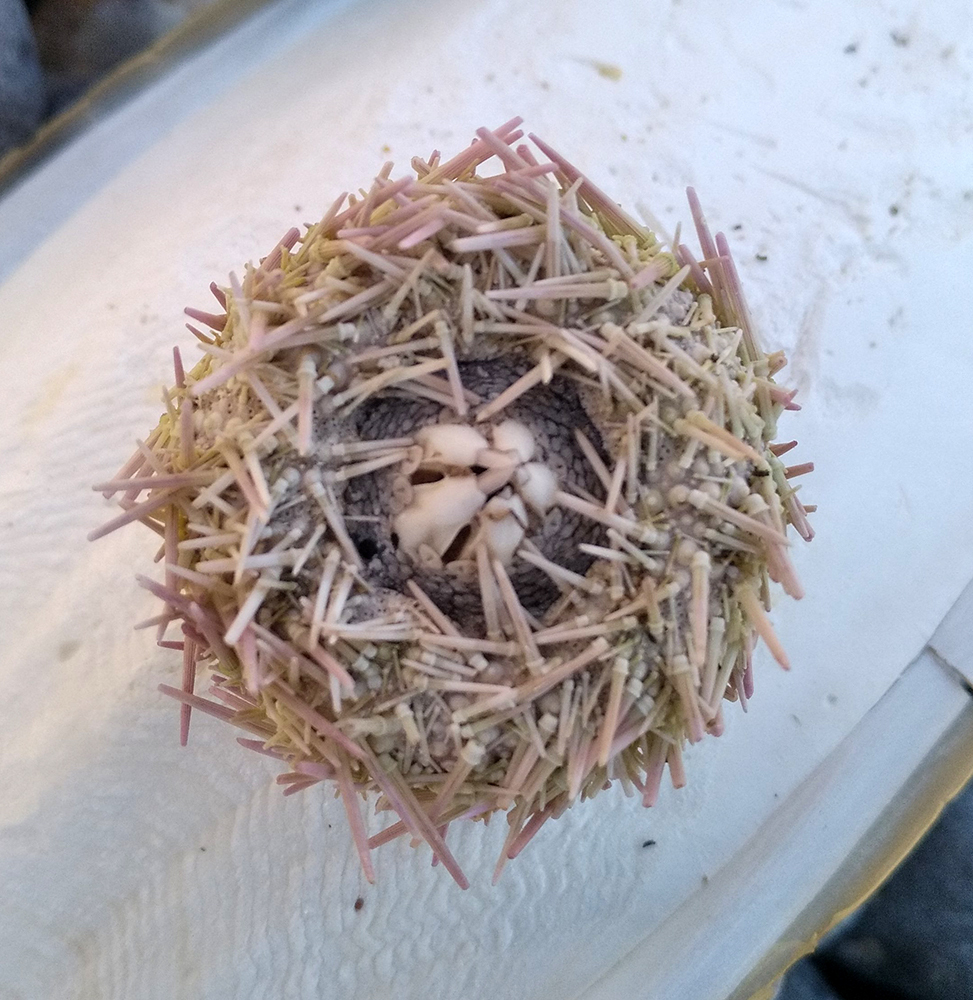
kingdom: Animalia
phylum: Echinodermata
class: Echinoidea
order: Camarodonta
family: Parechinidae
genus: Psammechinus
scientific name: Psammechinus miliaris
